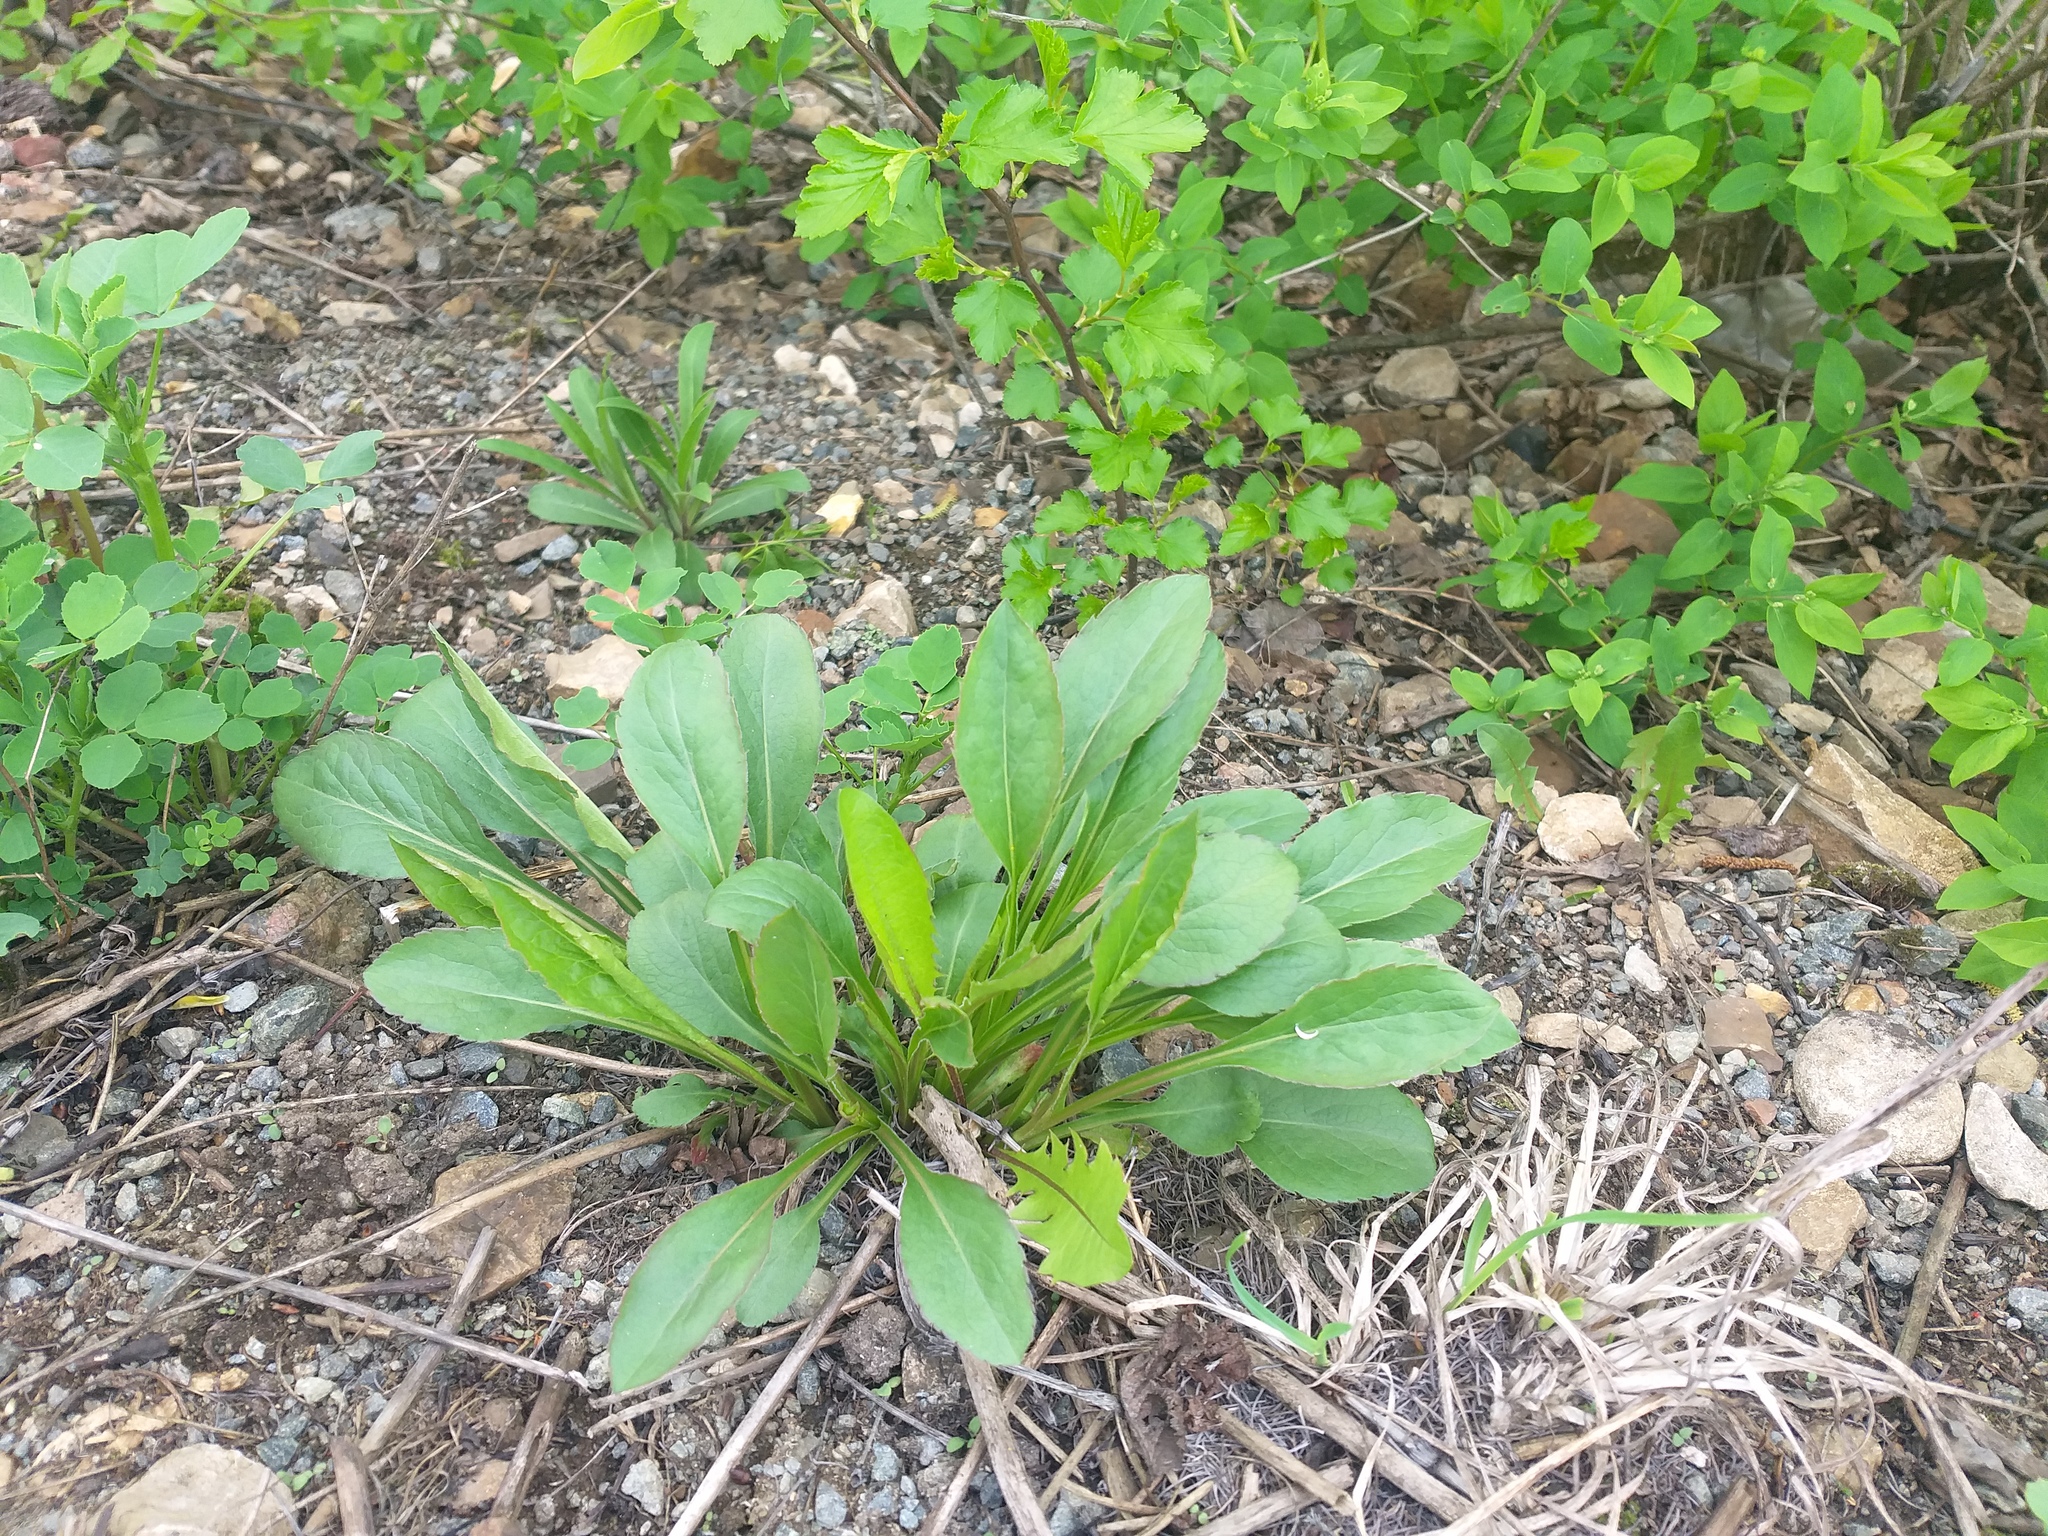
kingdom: Plantae
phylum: Tracheophyta
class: Magnoliopsida
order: Asterales
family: Asteraceae
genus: Solidago
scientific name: Solidago virgaurea
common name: Goldenrod
